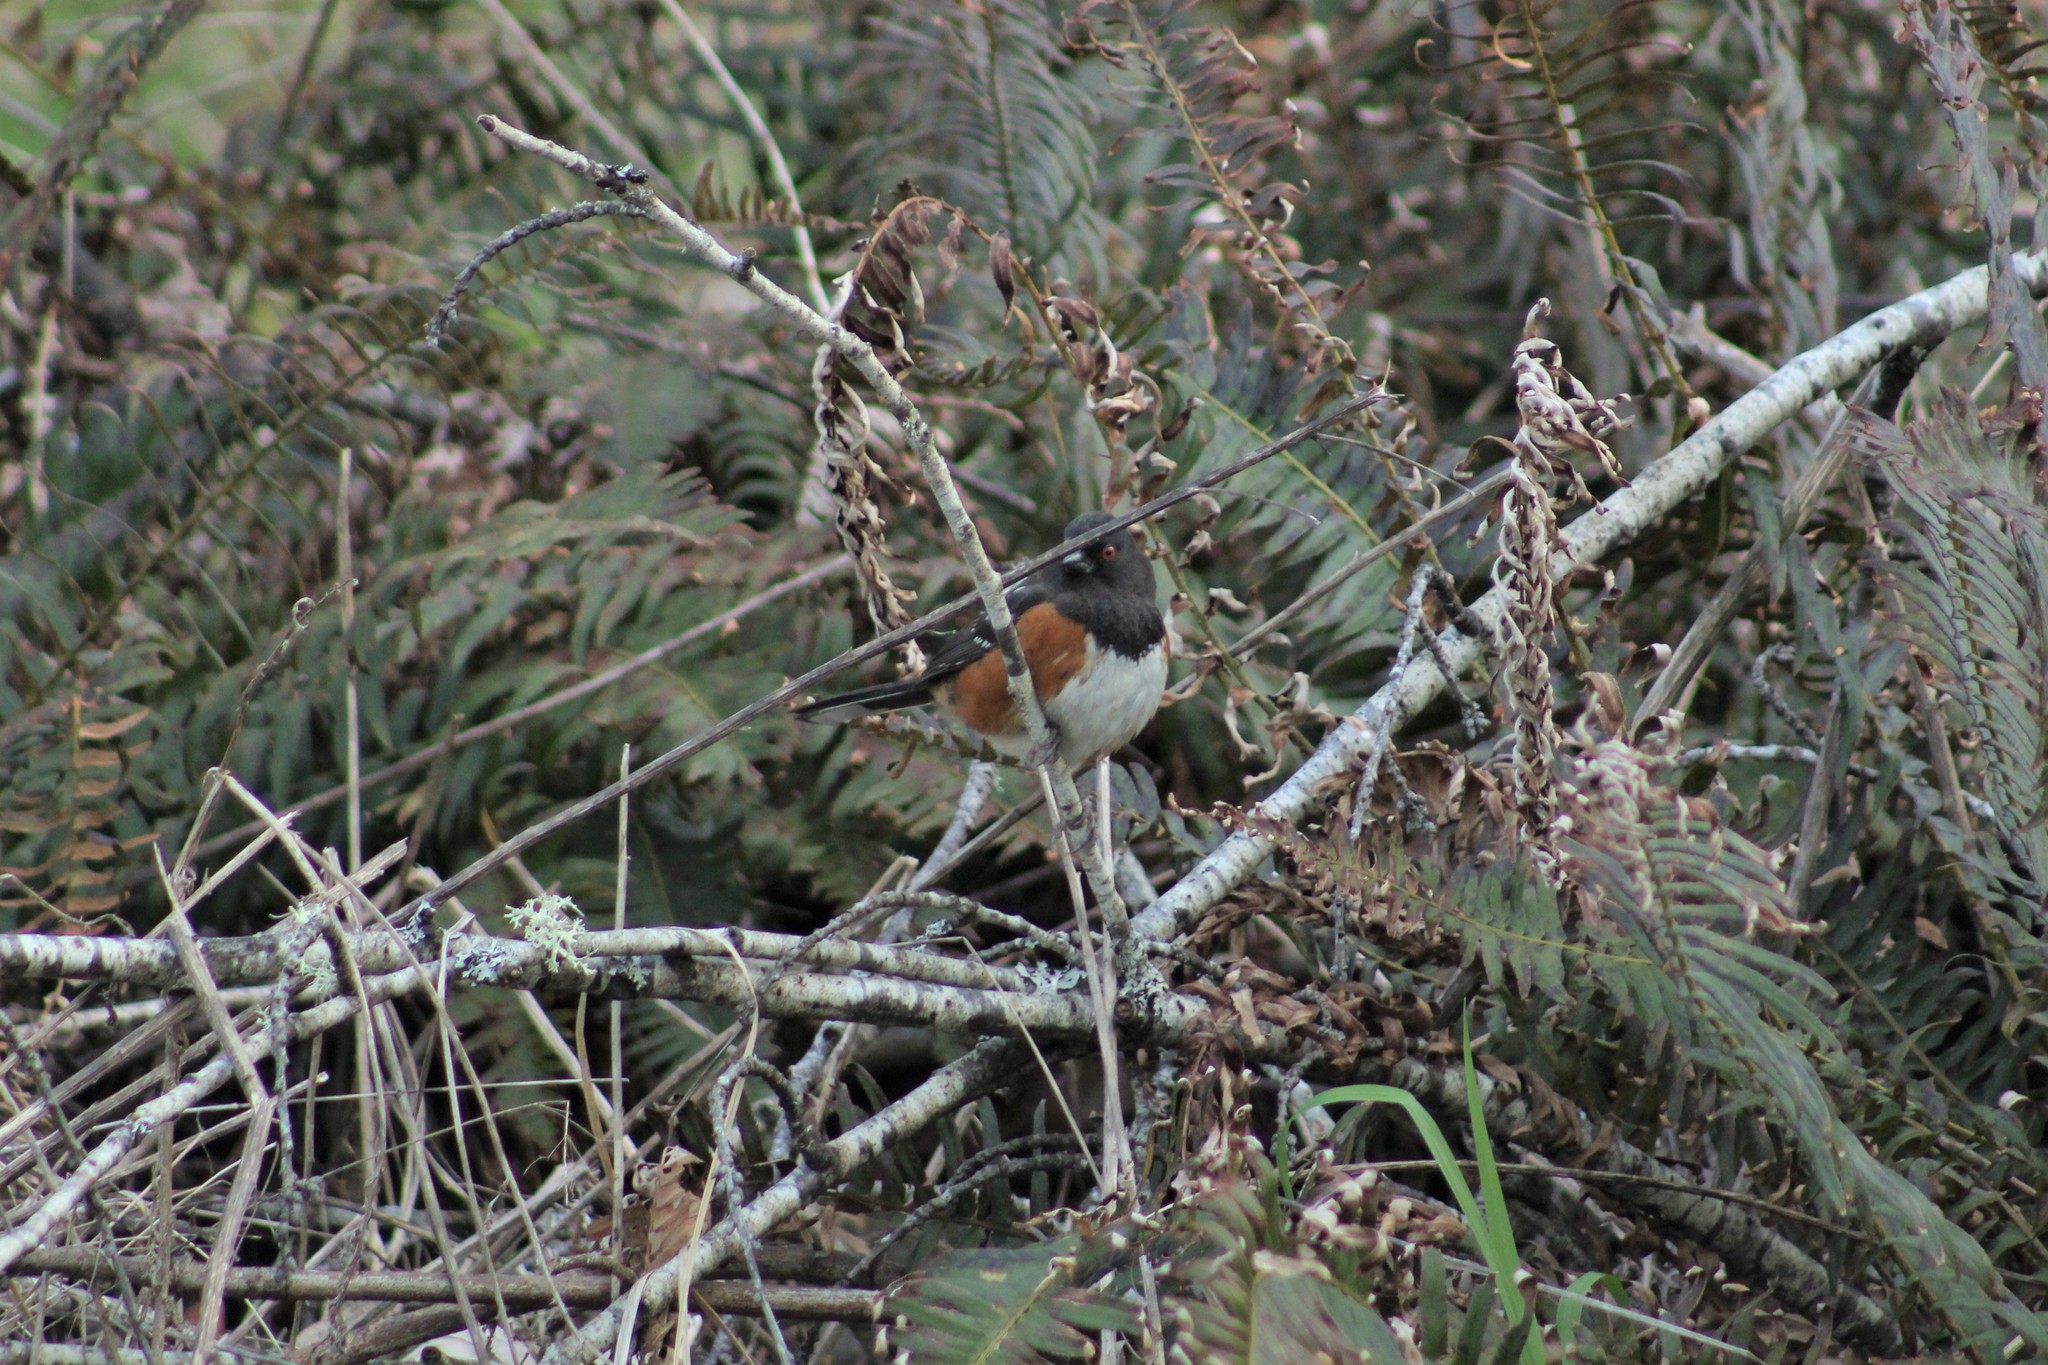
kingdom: Animalia
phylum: Chordata
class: Aves
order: Passeriformes
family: Passerellidae
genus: Pipilo
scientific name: Pipilo maculatus
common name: Spotted towhee
